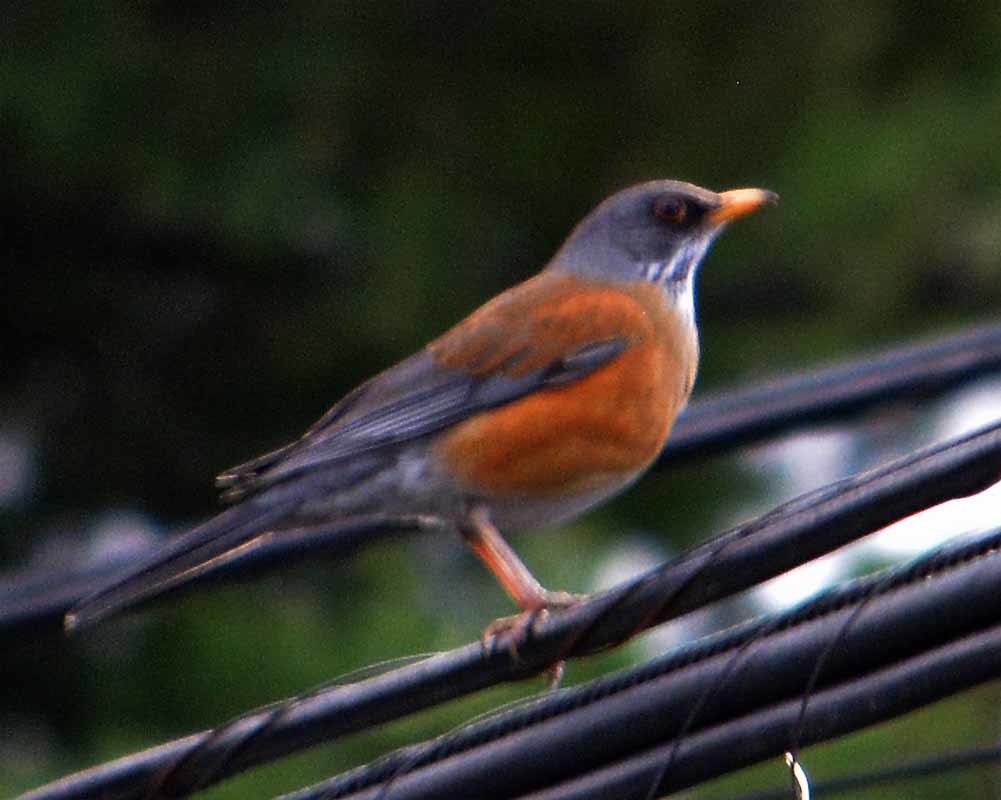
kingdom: Animalia
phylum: Chordata
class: Aves
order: Passeriformes
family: Turdidae
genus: Turdus
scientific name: Turdus rufopalliatus
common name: Rufous-backed robin
